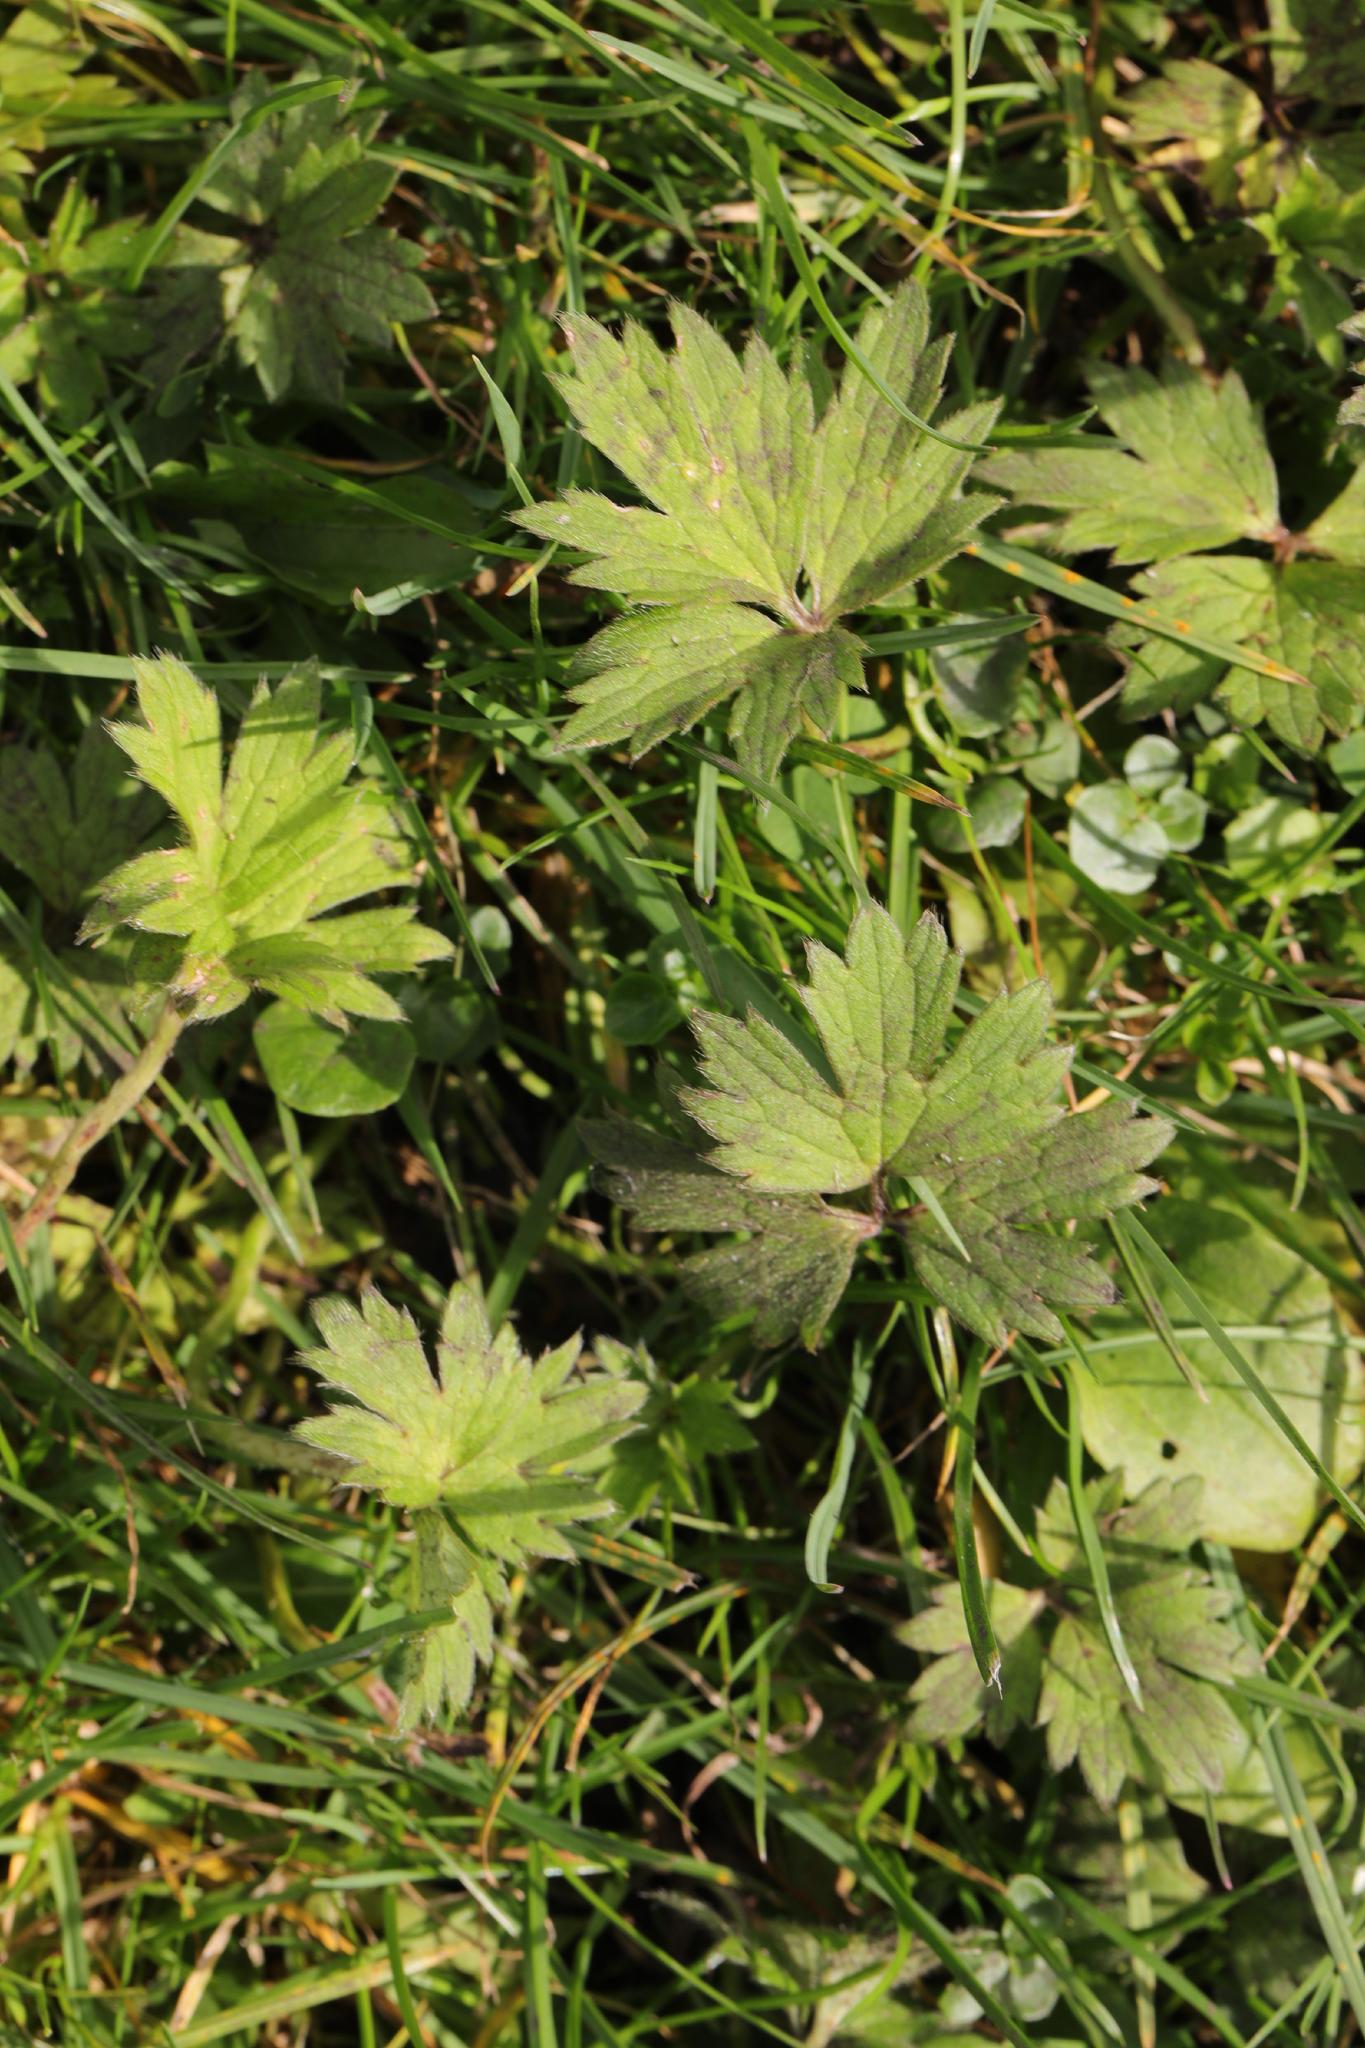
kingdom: Plantae
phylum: Tracheophyta
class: Magnoliopsida
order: Ranunculales
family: Ranunculaceae
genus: Ranunculus
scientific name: Ranunculus repens
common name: Creeping buttercup
